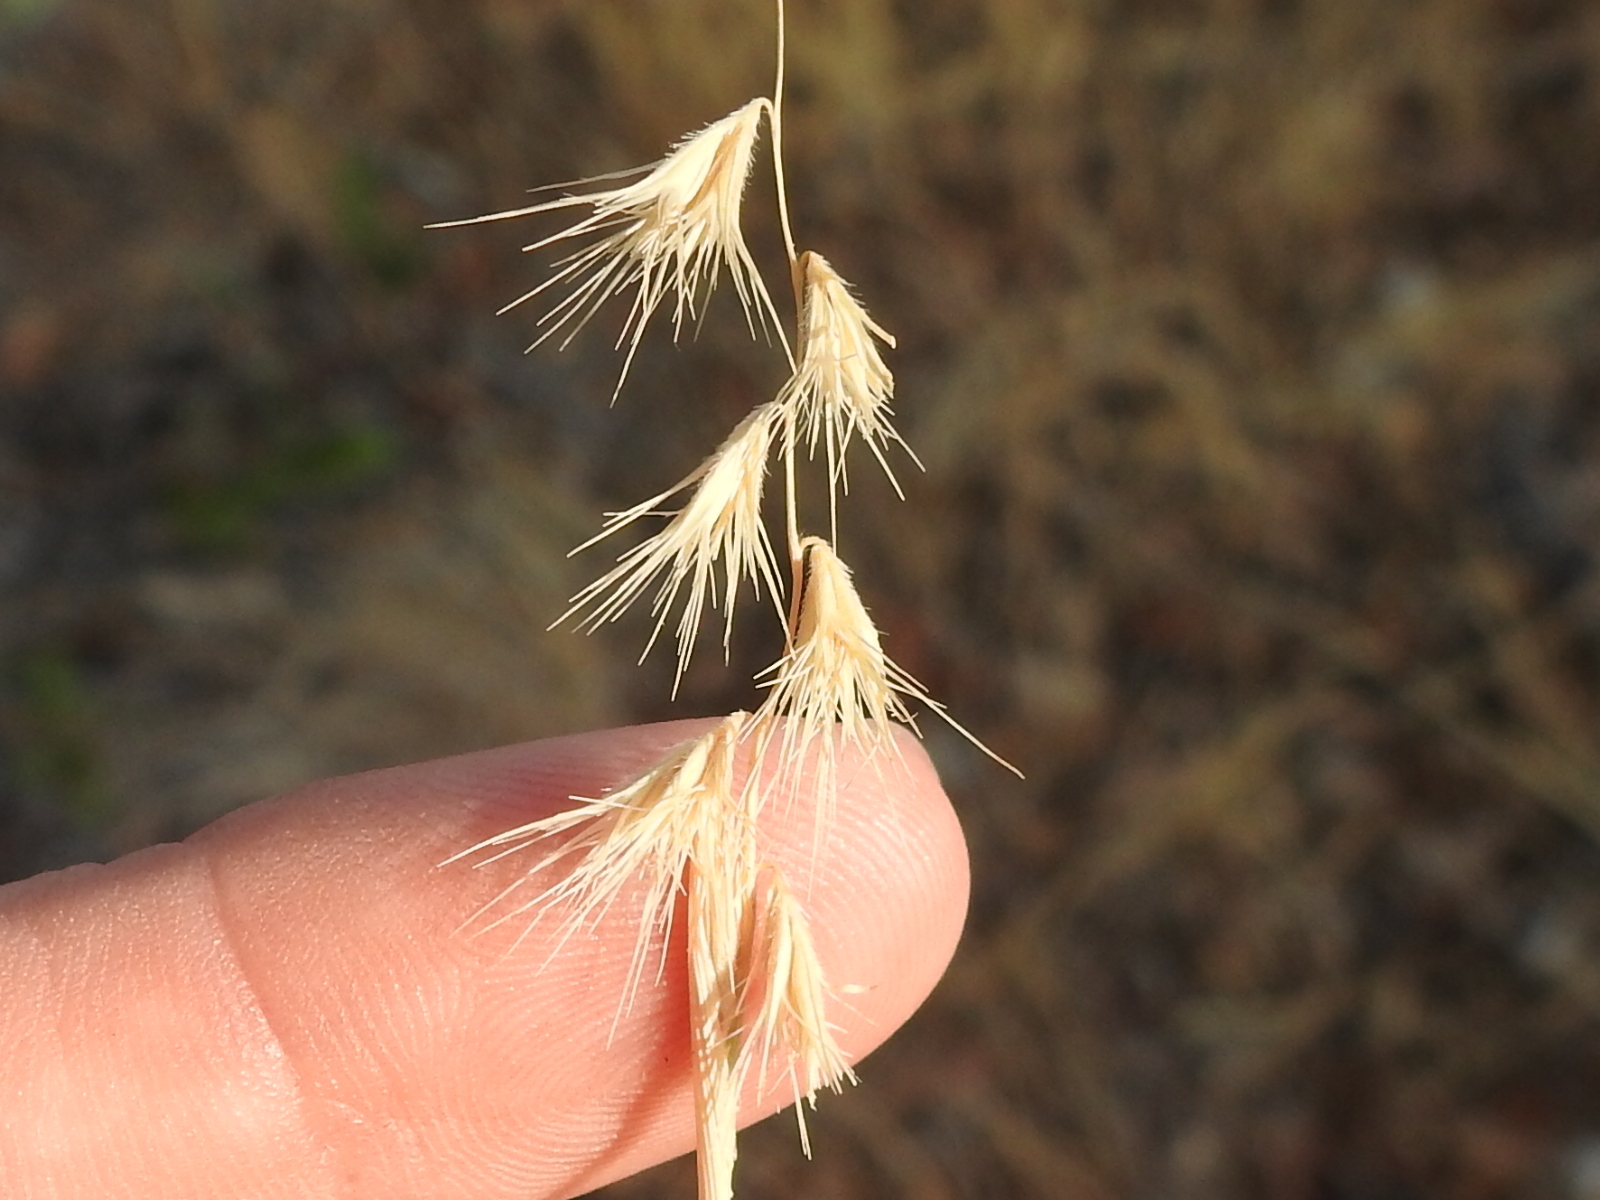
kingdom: Plantae
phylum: Tracheophyta
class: Liliopsida
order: Poales
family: Poaceae
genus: Bouteloua
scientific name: Bouteloua rigidiseta
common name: Texas grama
